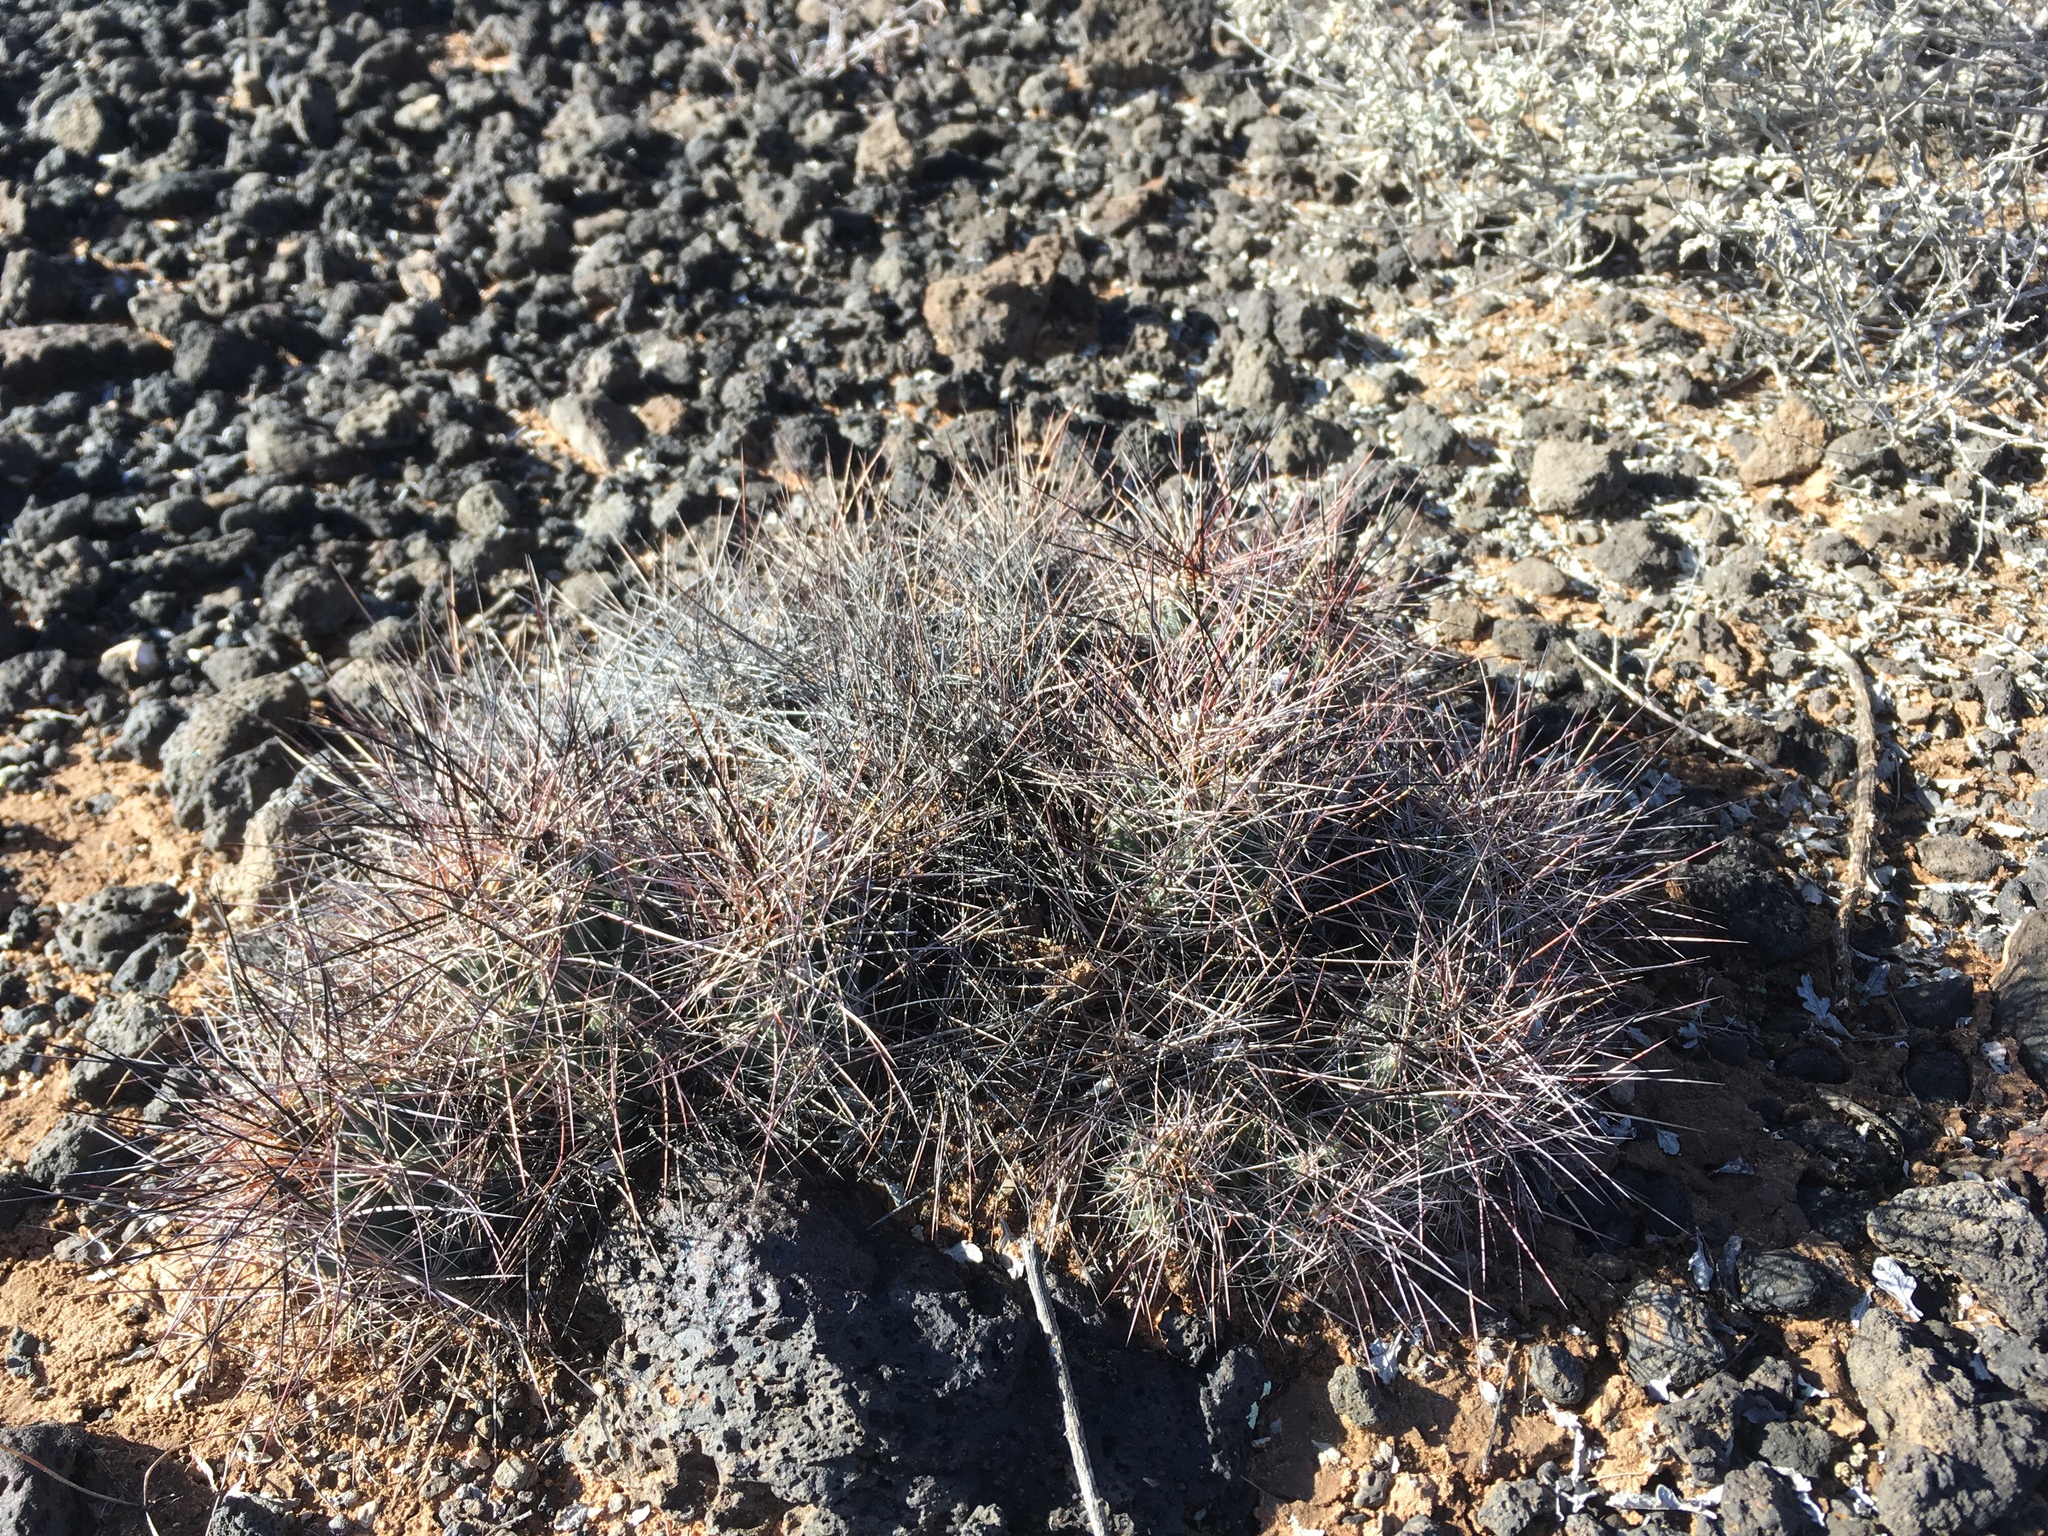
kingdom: Plantae
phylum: Tracheophyta
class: Magnoliopsida
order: Caryophyllales
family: Cactaceae
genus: Coryphantha
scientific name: Coryphantha macromeris
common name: Nipple beehive cactus
